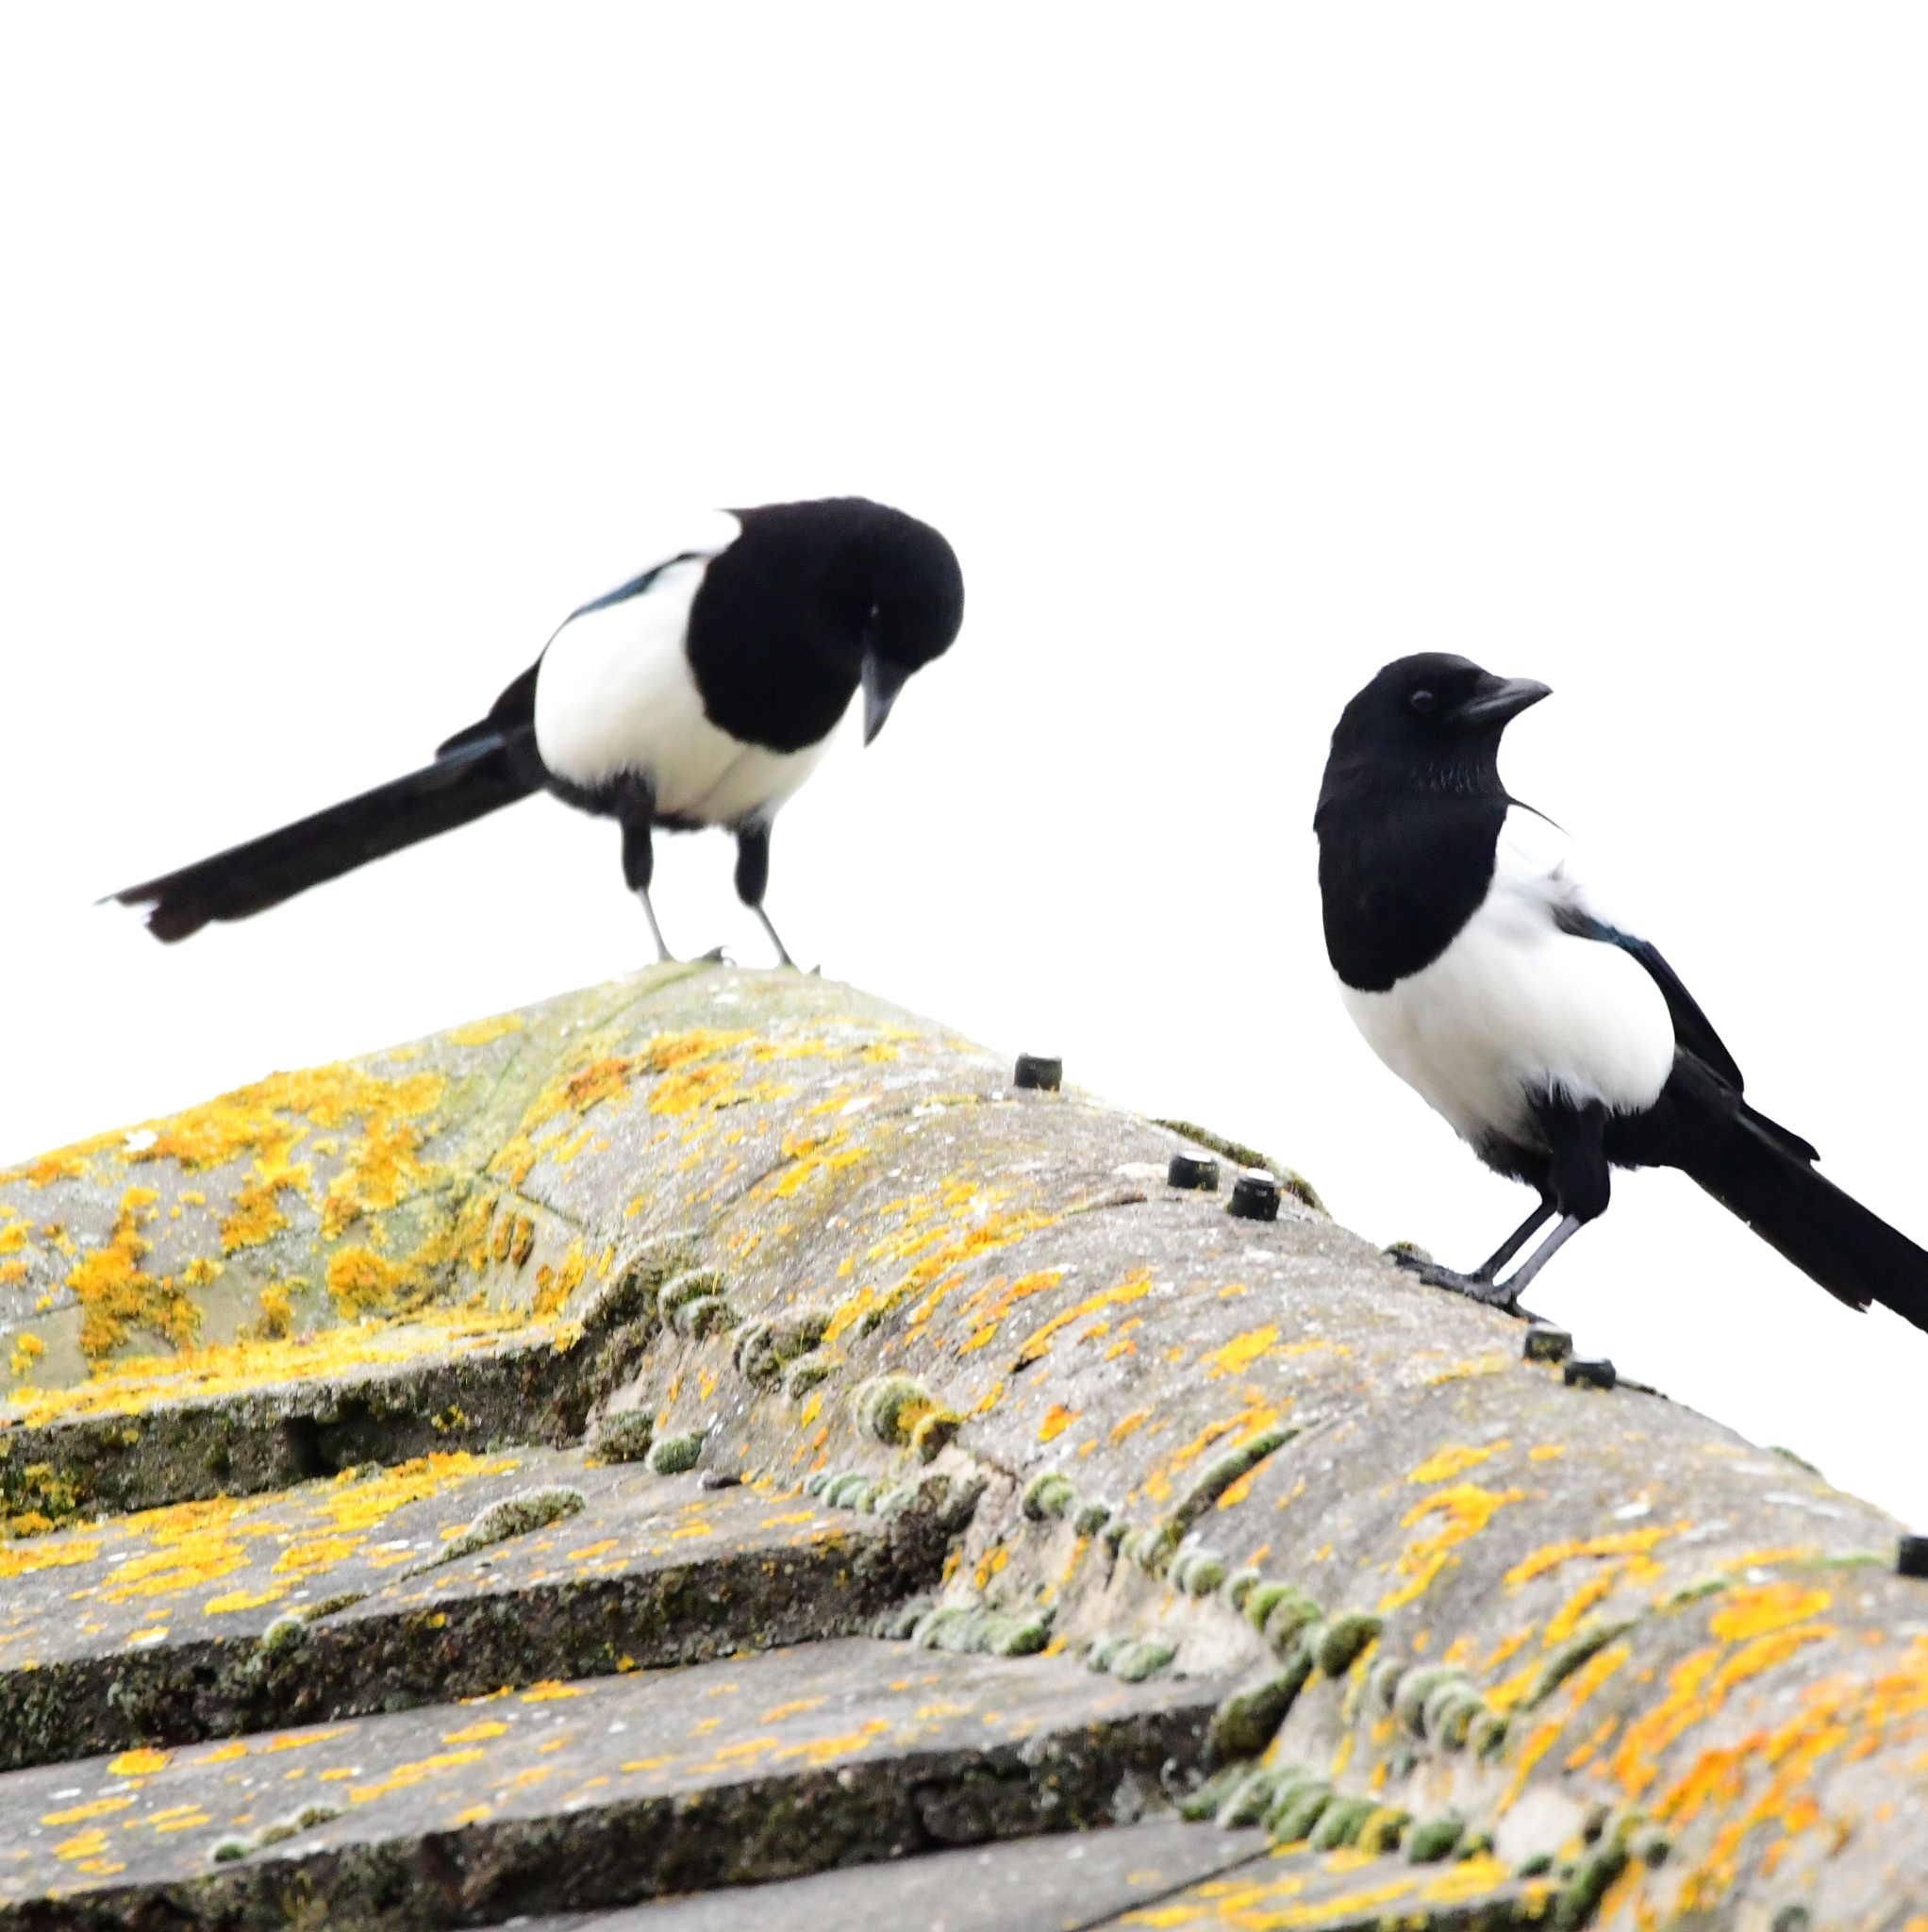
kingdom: Animalia
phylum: Chordata
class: Aves
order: Passeriformes
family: Corvidae
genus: Pica
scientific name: Pica pica
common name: Eurasian magpie
